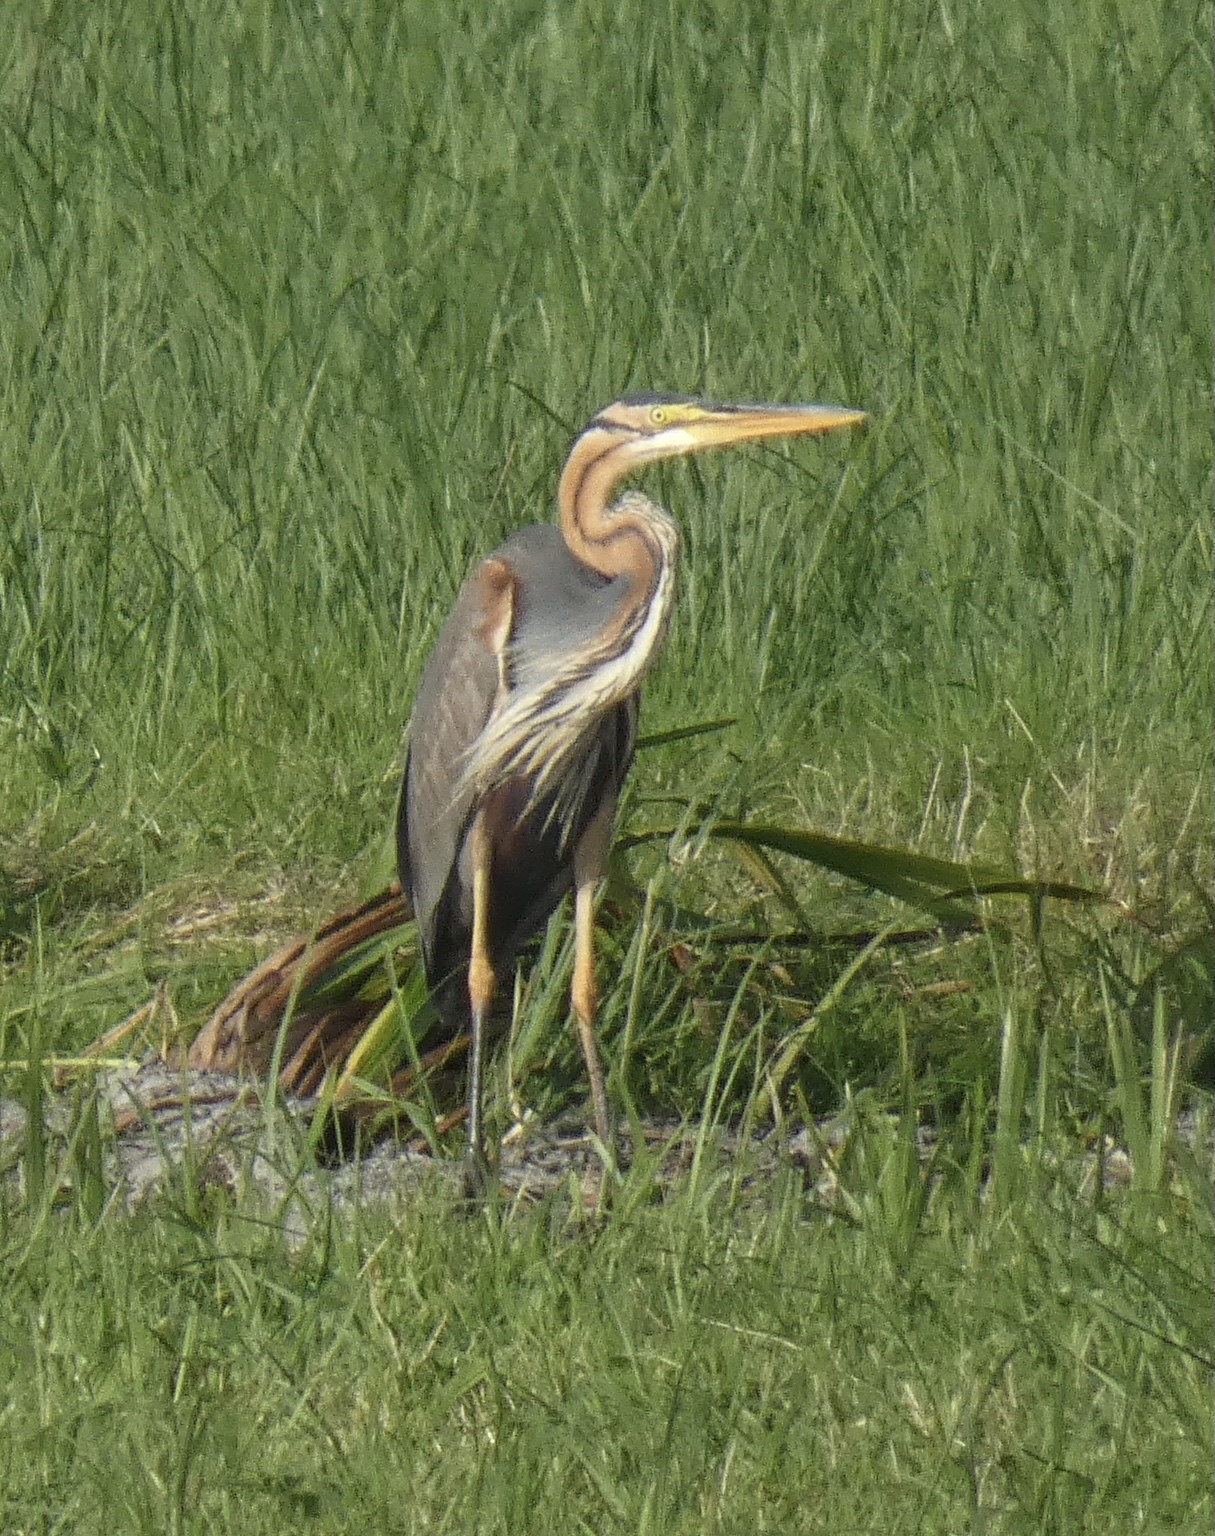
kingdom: Animalia
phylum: Chordata
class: Aves
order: Pelecaniformes
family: Ardeidae
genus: Ardea
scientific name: Ardea purpurea
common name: Purple heron
